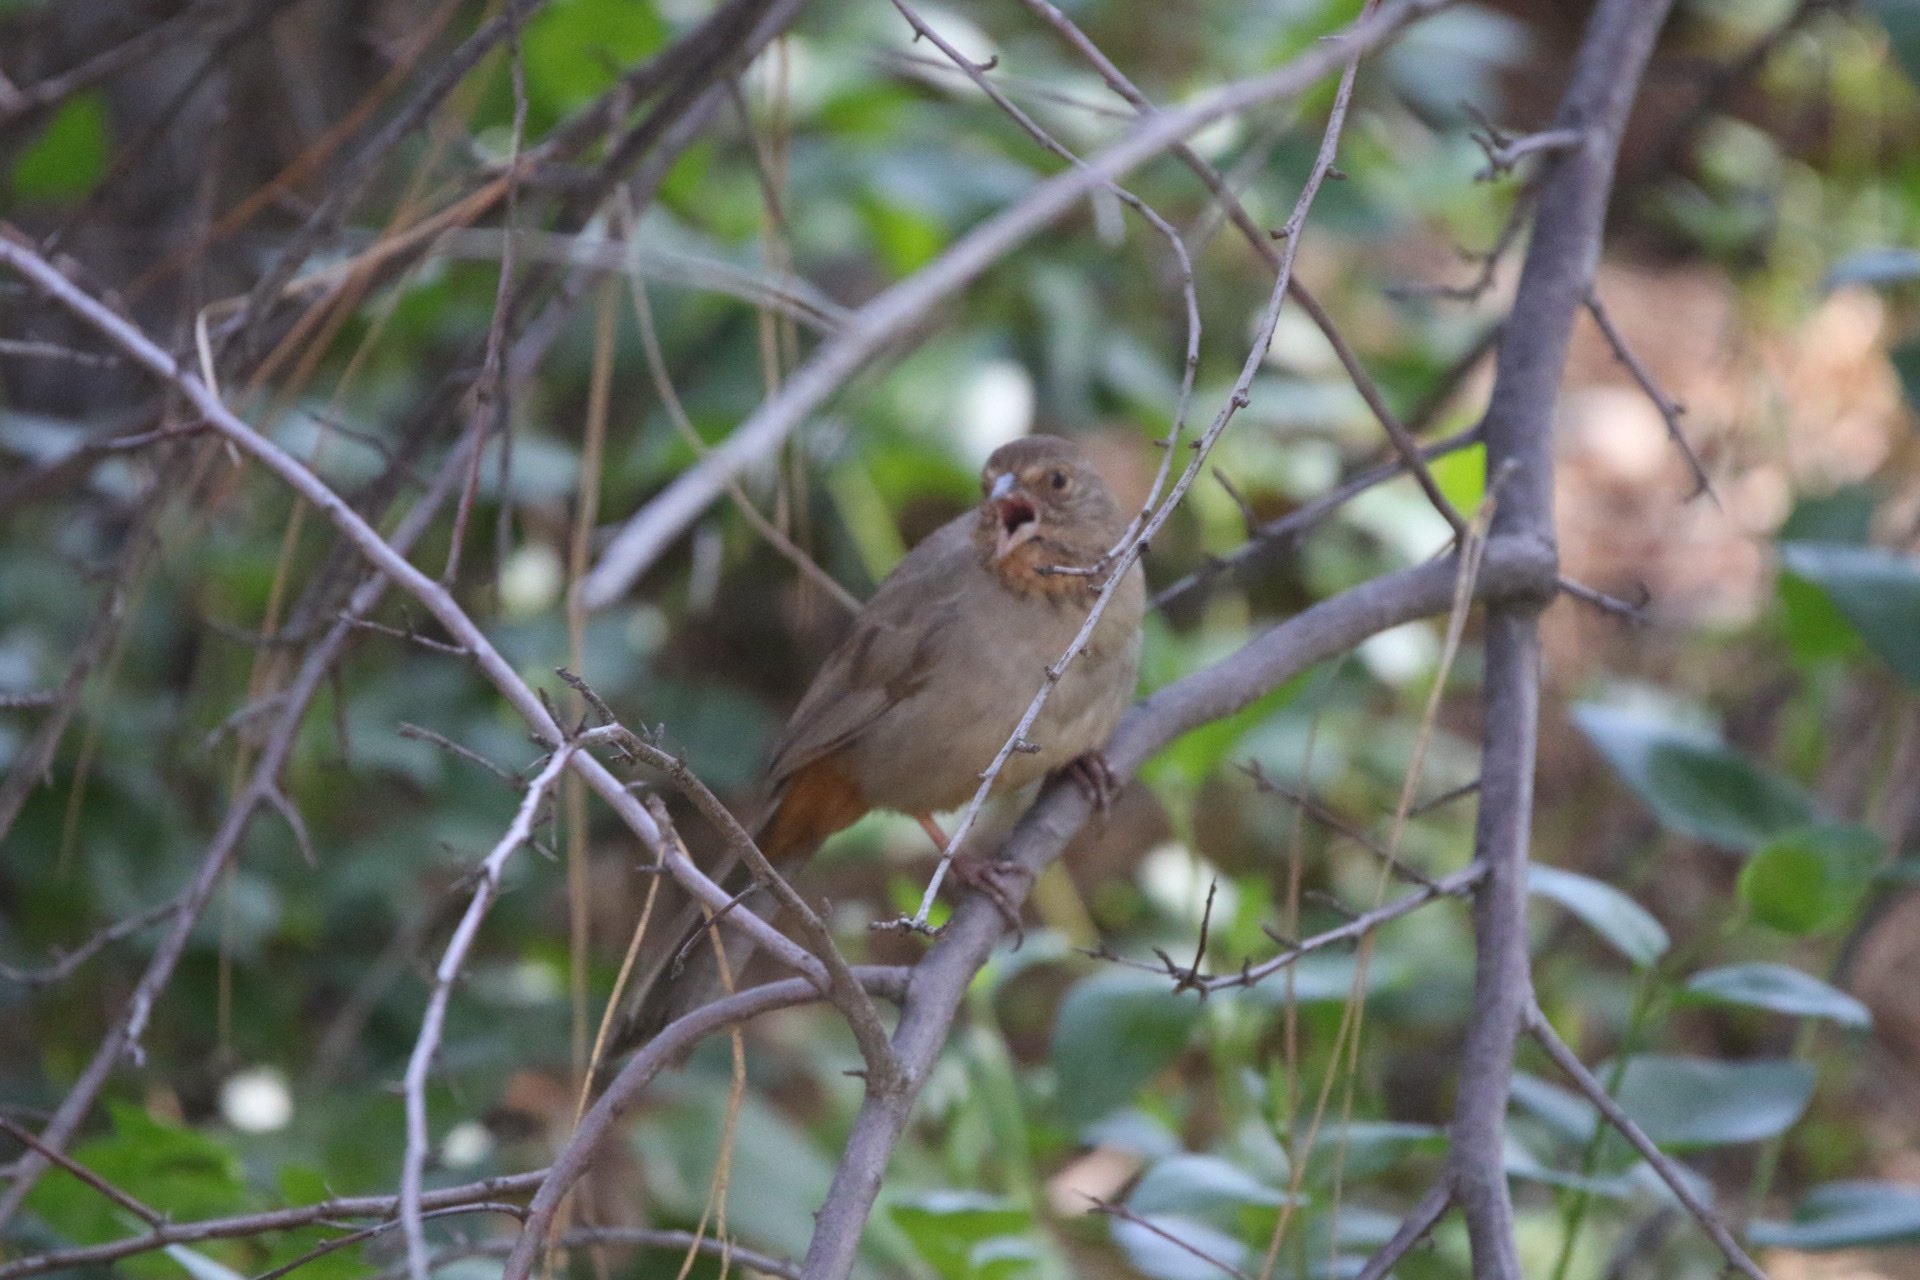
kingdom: Animalia
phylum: Chordata
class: Aves
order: Passeriformes
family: Passerellidae
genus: Melozone
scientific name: Melozone crissalis
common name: California towhee
